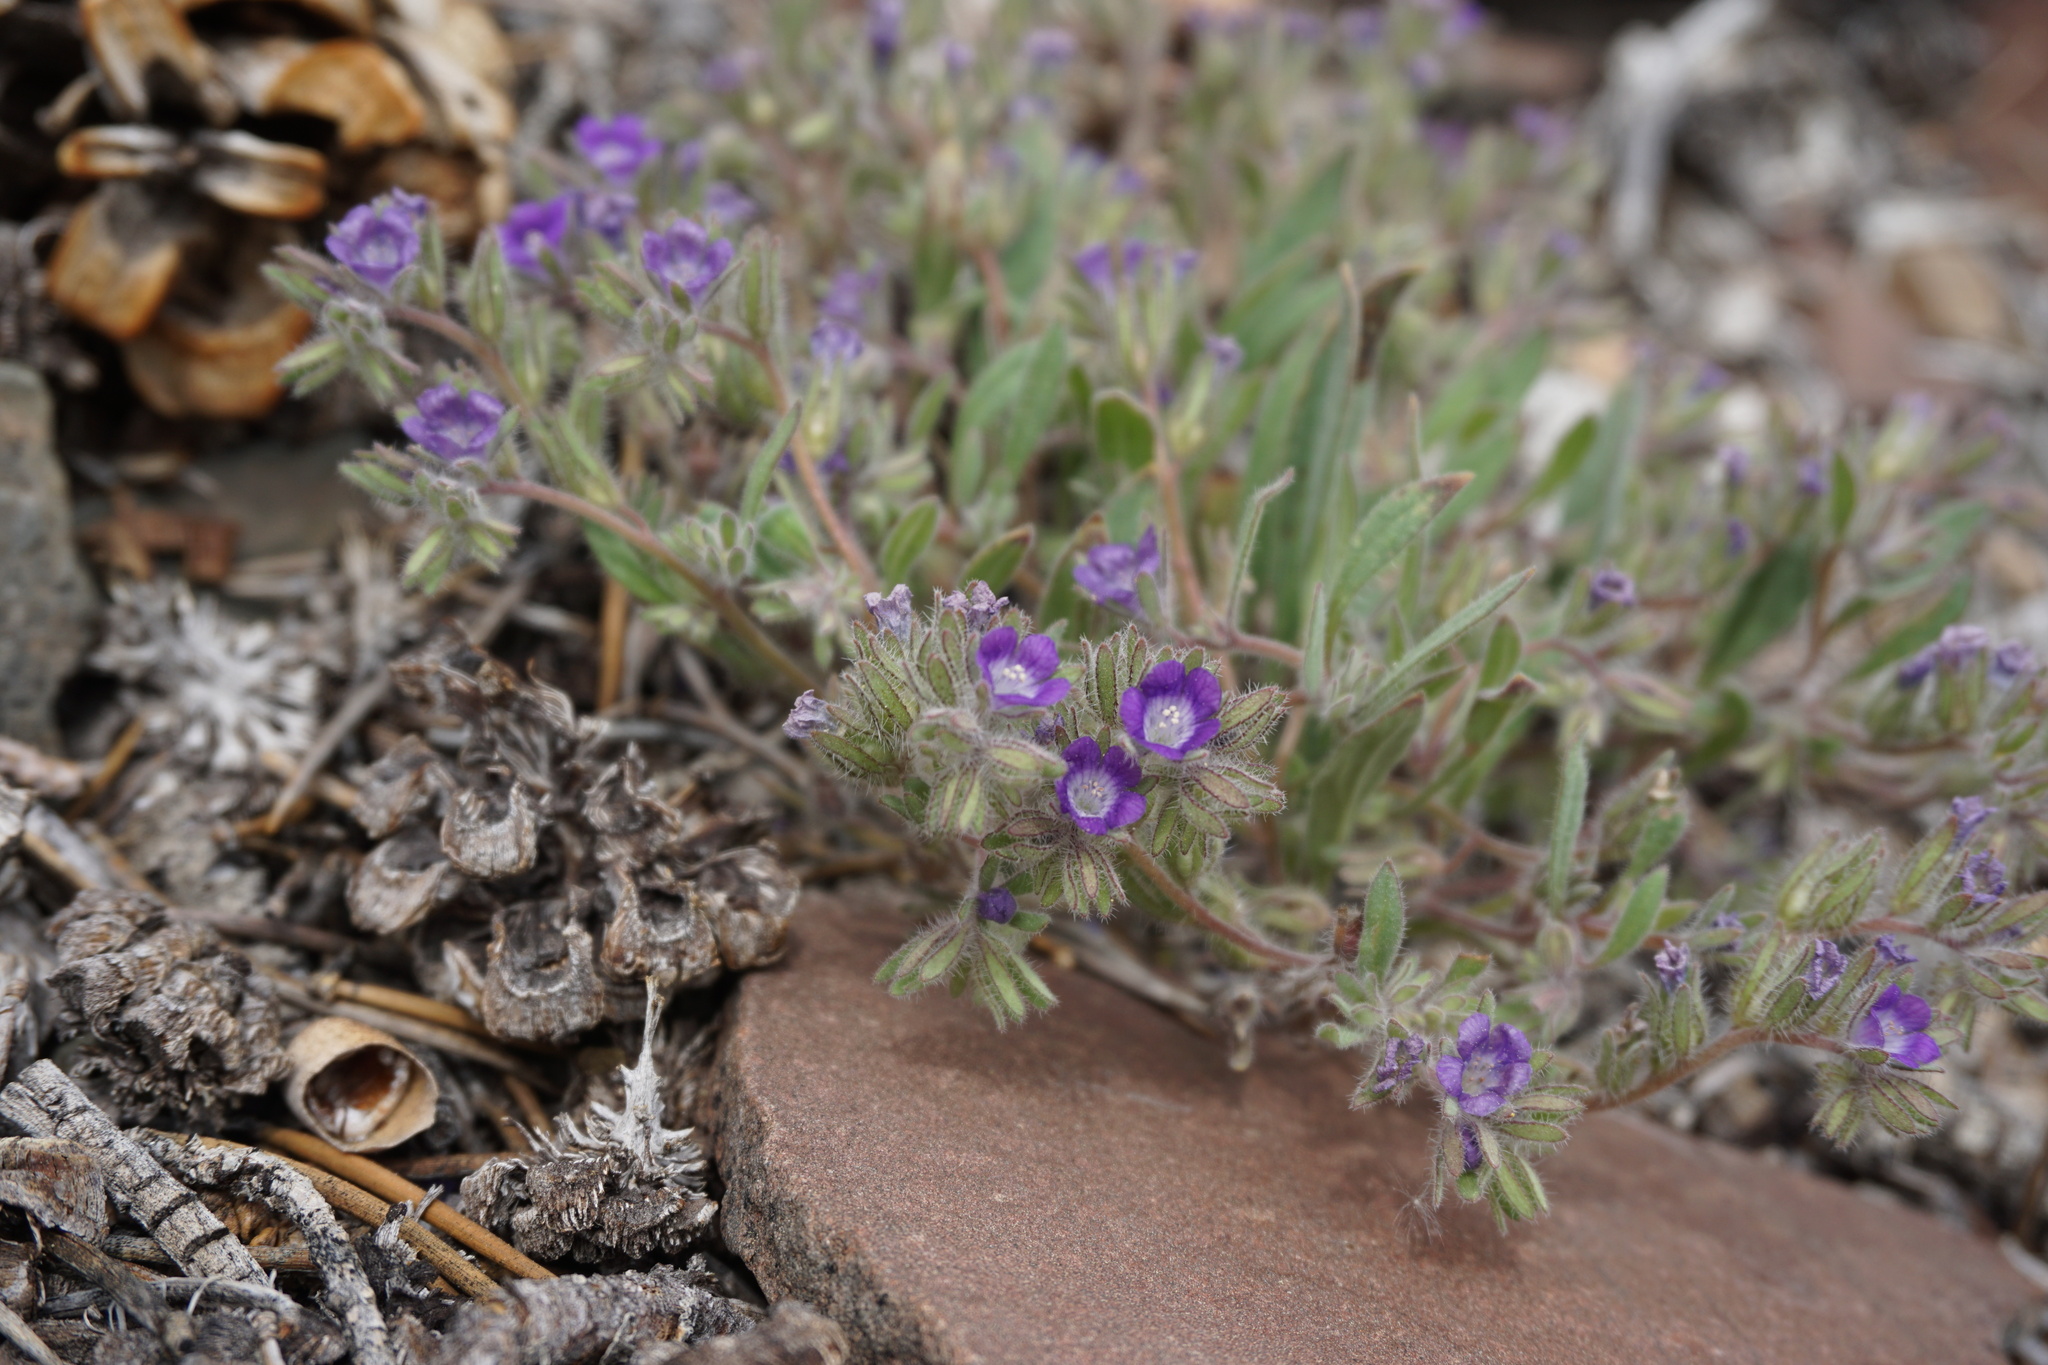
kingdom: Plantae
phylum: Tracheophyta
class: Magnoliopsida
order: Boraginales
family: Hydrophyllaceae
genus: Phacelia
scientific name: Phacelia curvipes
